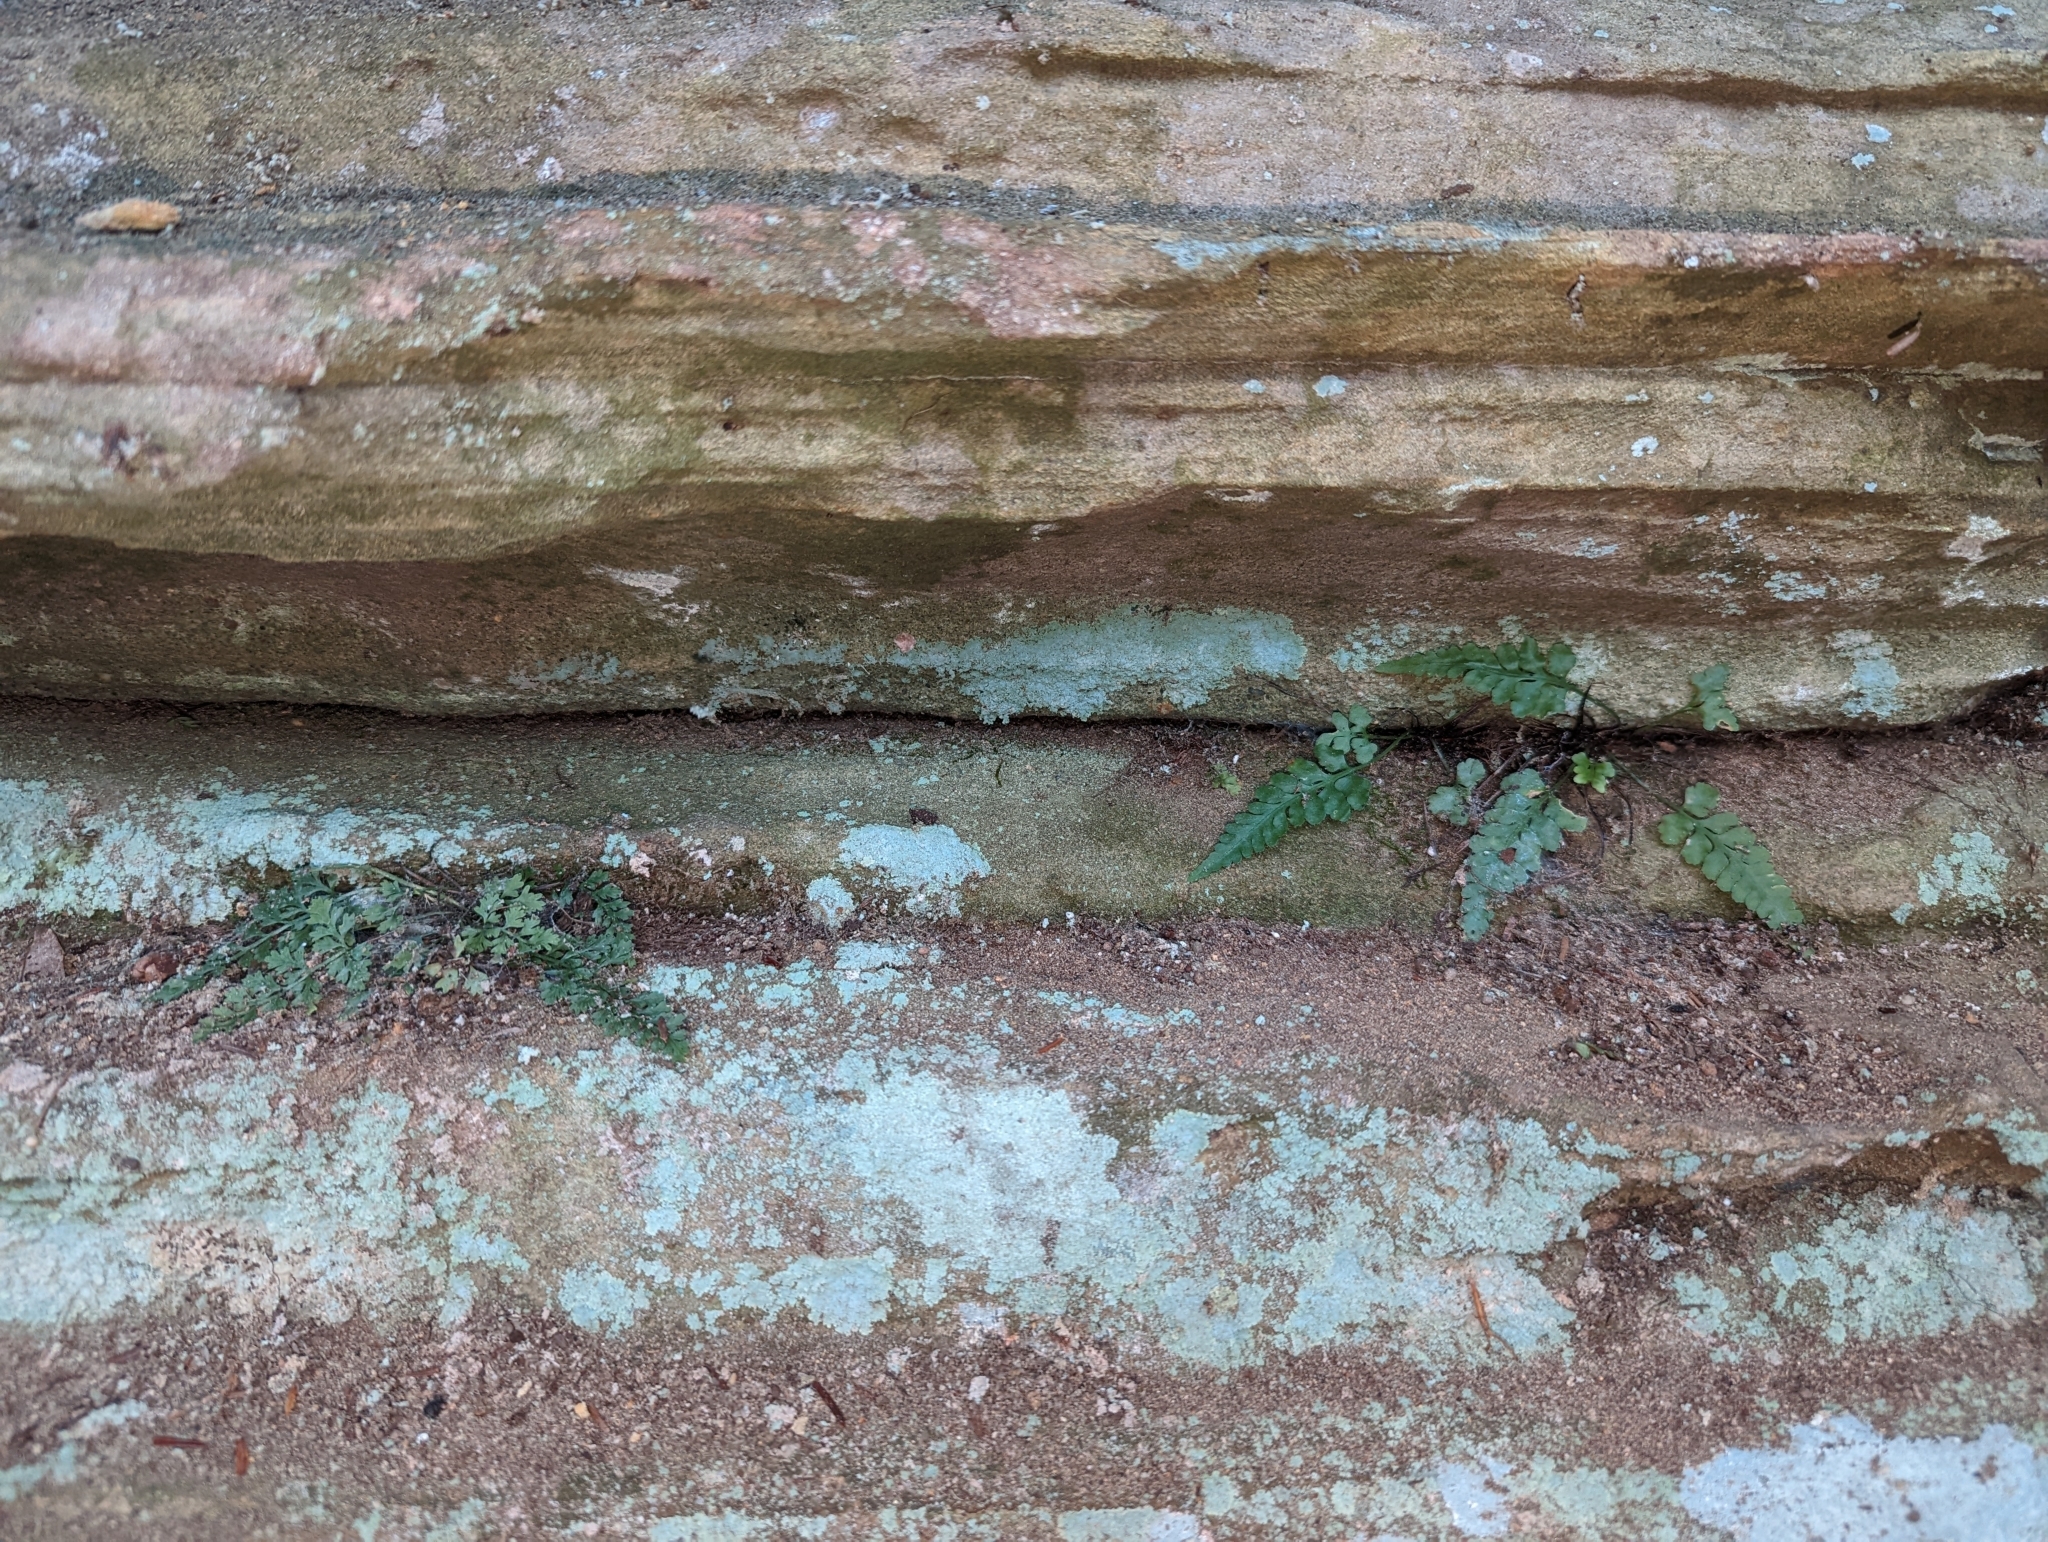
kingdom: Plantae
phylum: Tracheophyta
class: Polypodiopsida
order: Polypodiales
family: Aspleniaceae
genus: Asplenium
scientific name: Asplenium pinnatifidum
